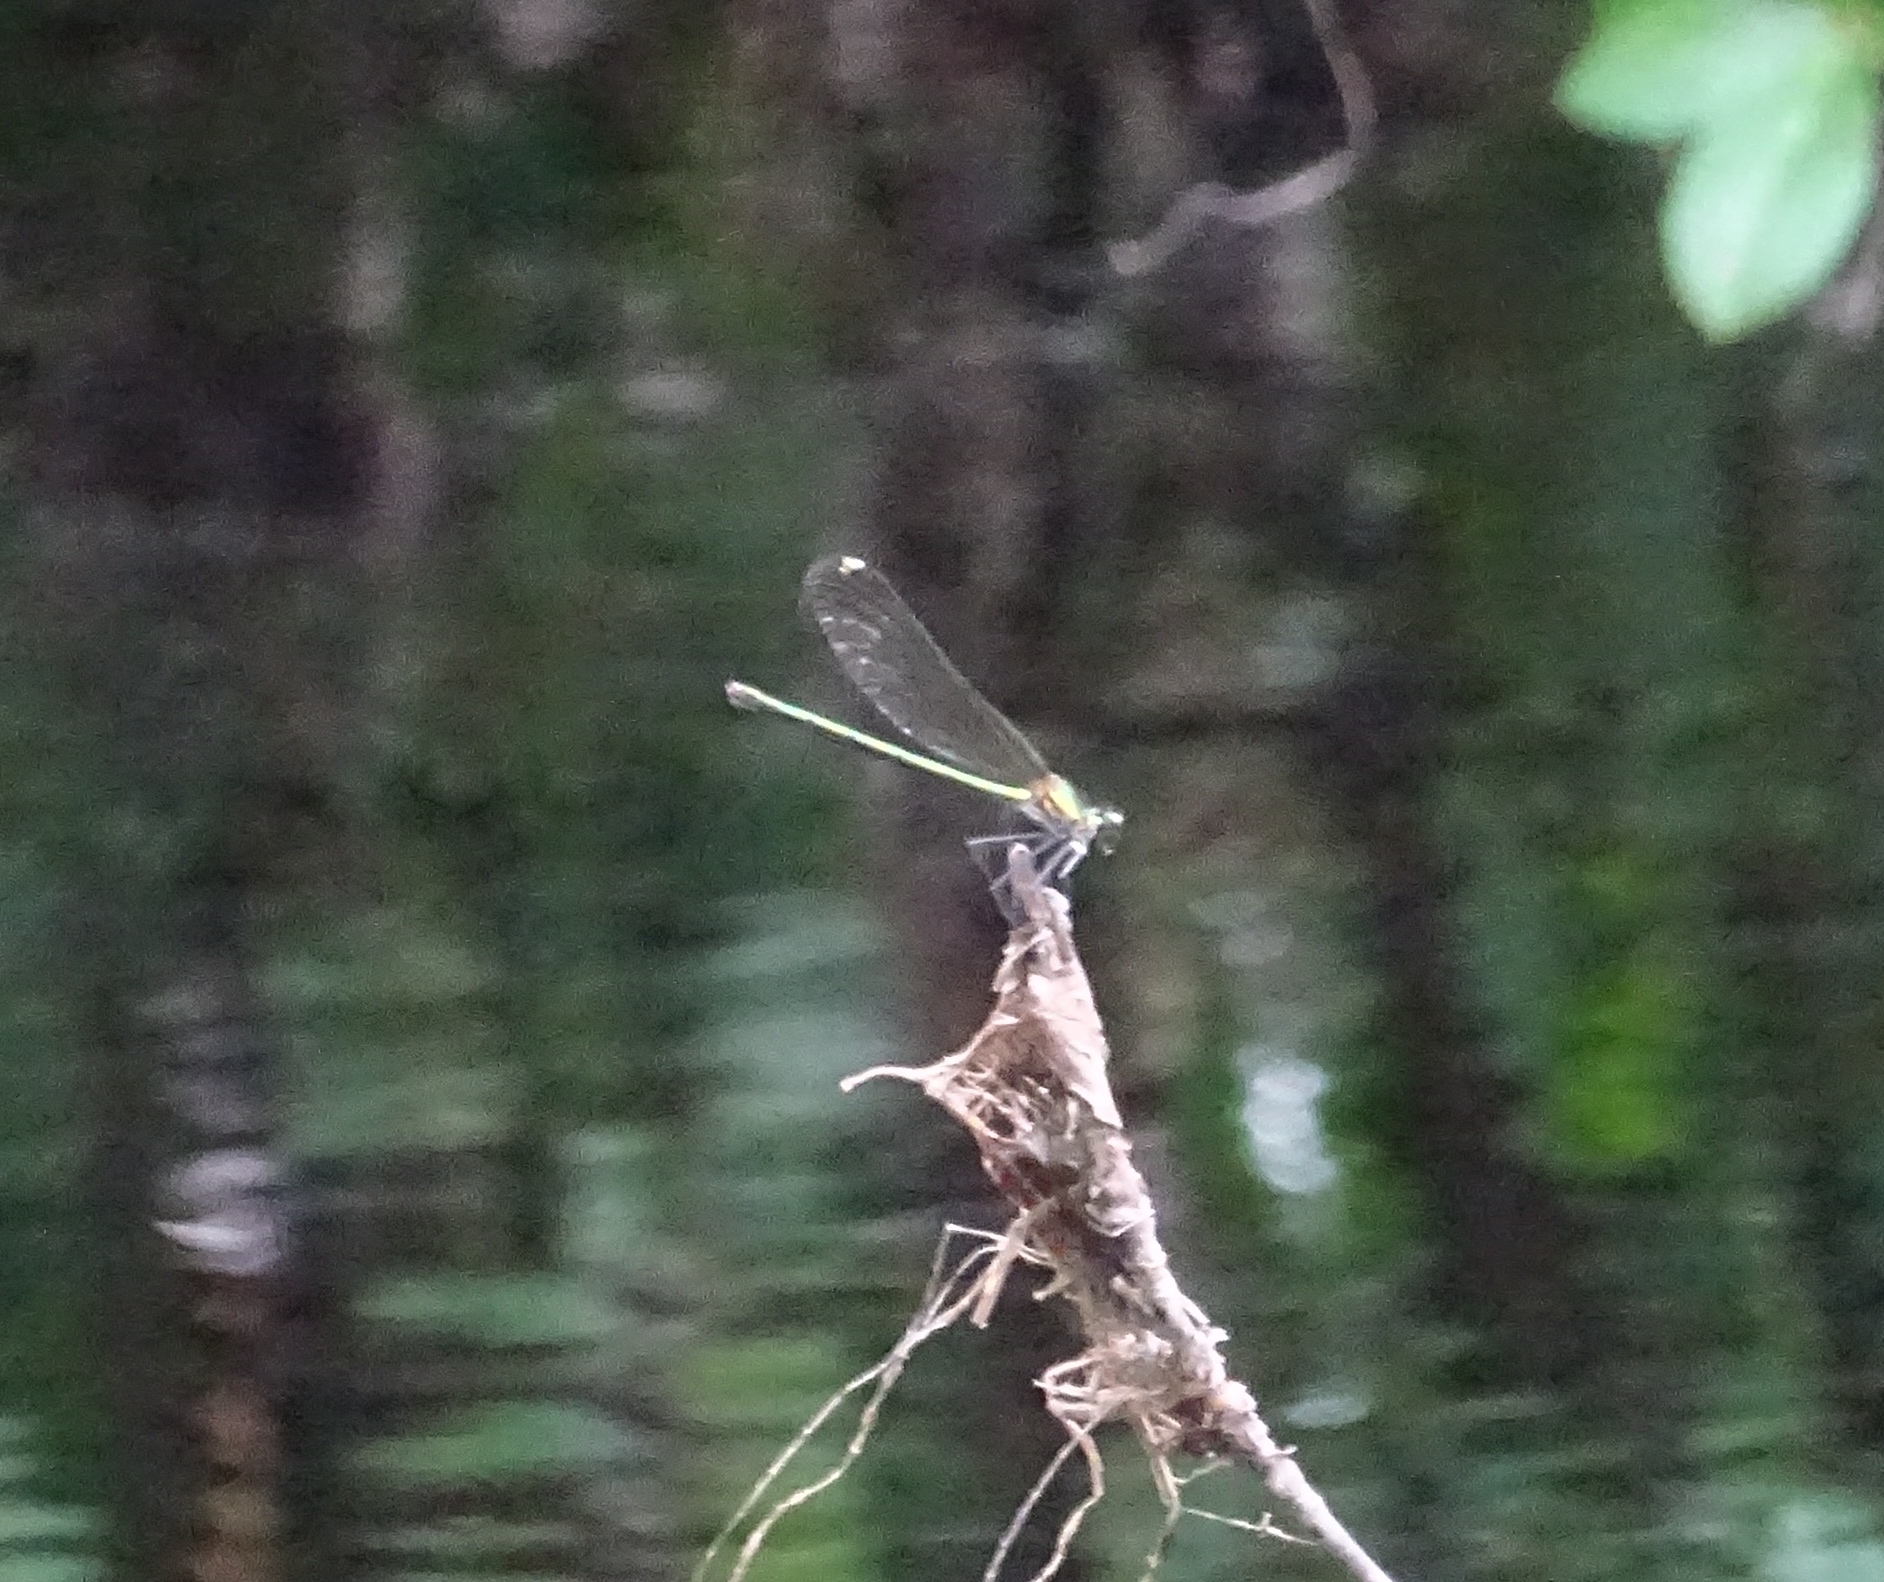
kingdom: Animalia
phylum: Arthropoda
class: Insecta
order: Odonata
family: Calopterygidae
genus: Calopteryx
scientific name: Calopteryx dimidiata
